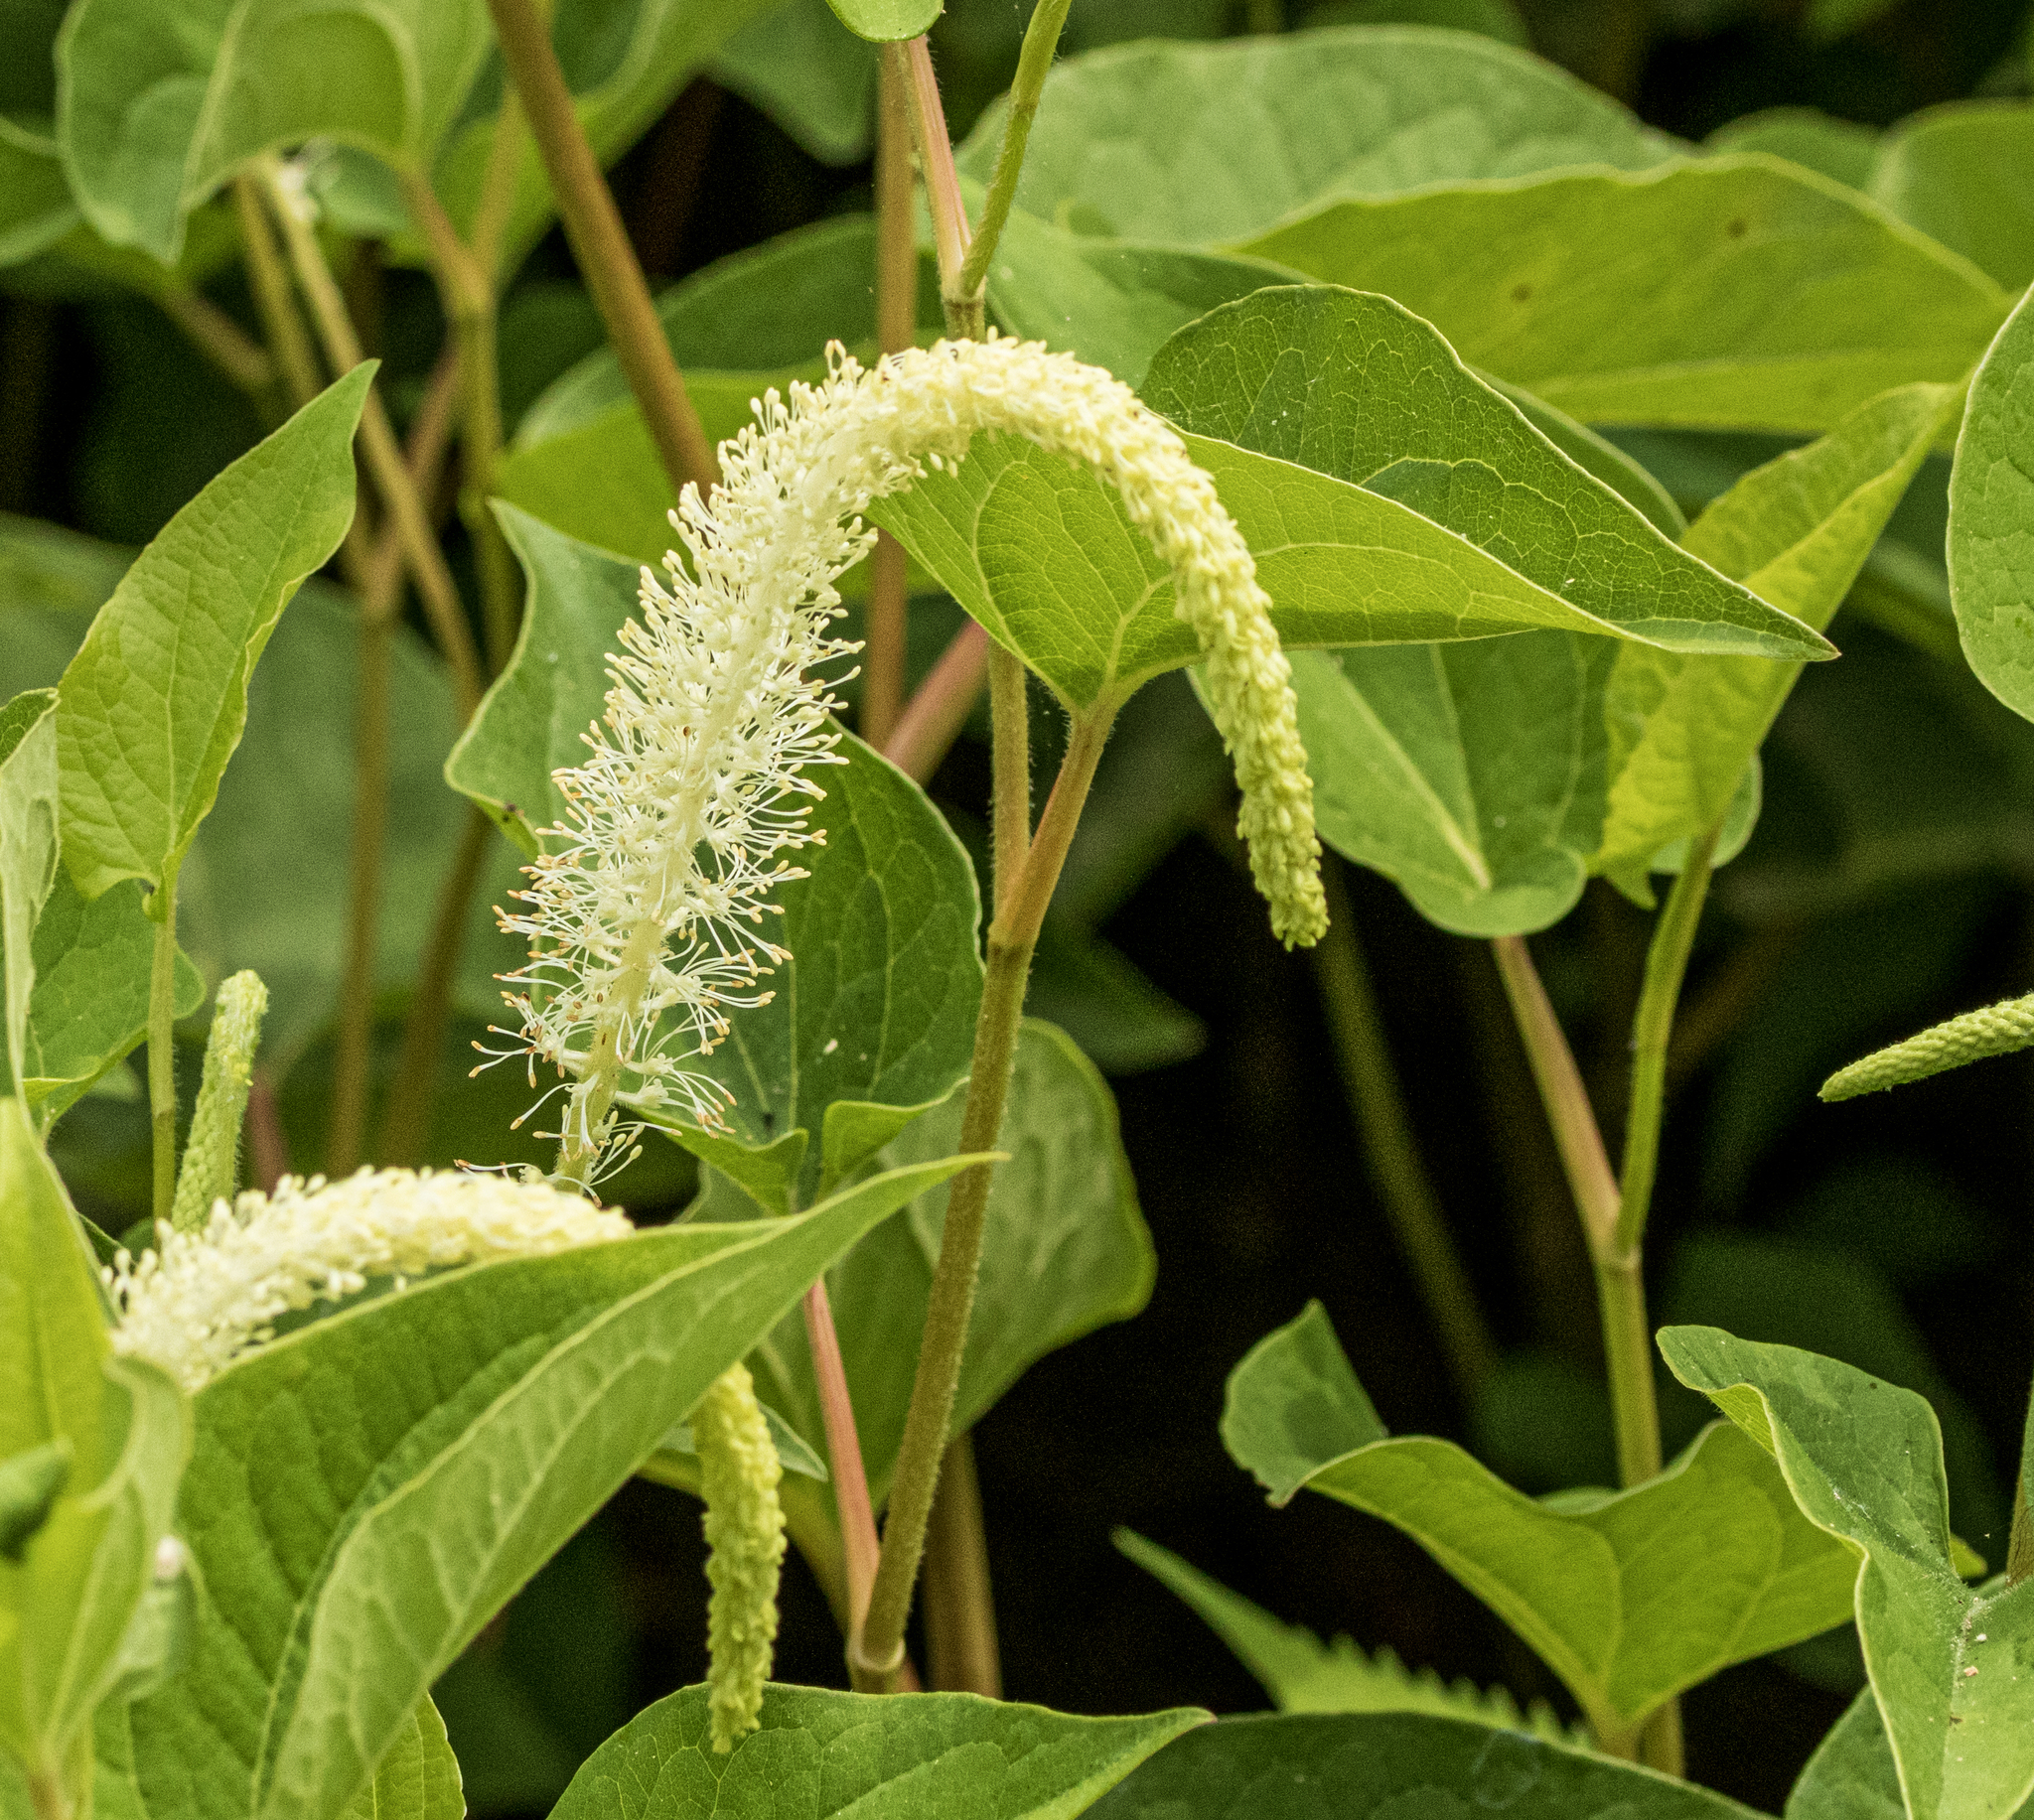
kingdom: Plantae
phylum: Tracheophyta
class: Magnoliopsida
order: Piperales
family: Saururaceae
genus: Saururus
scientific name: Saururus cernuus
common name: Lizard's-tail
